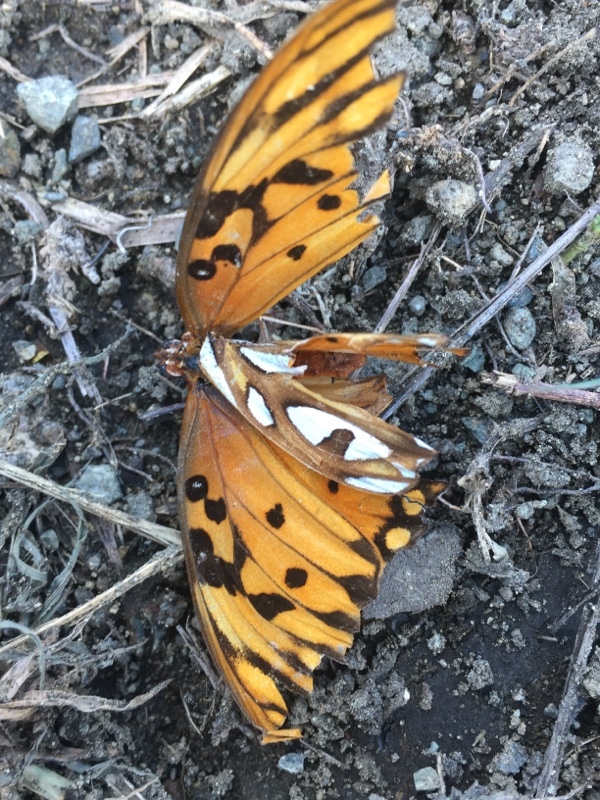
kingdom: Animalia
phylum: Arthropoda
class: Insecta
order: Lepidoptera
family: Nymphalidae
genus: Dione
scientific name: Dione vanillae
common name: Gulf fritillary
